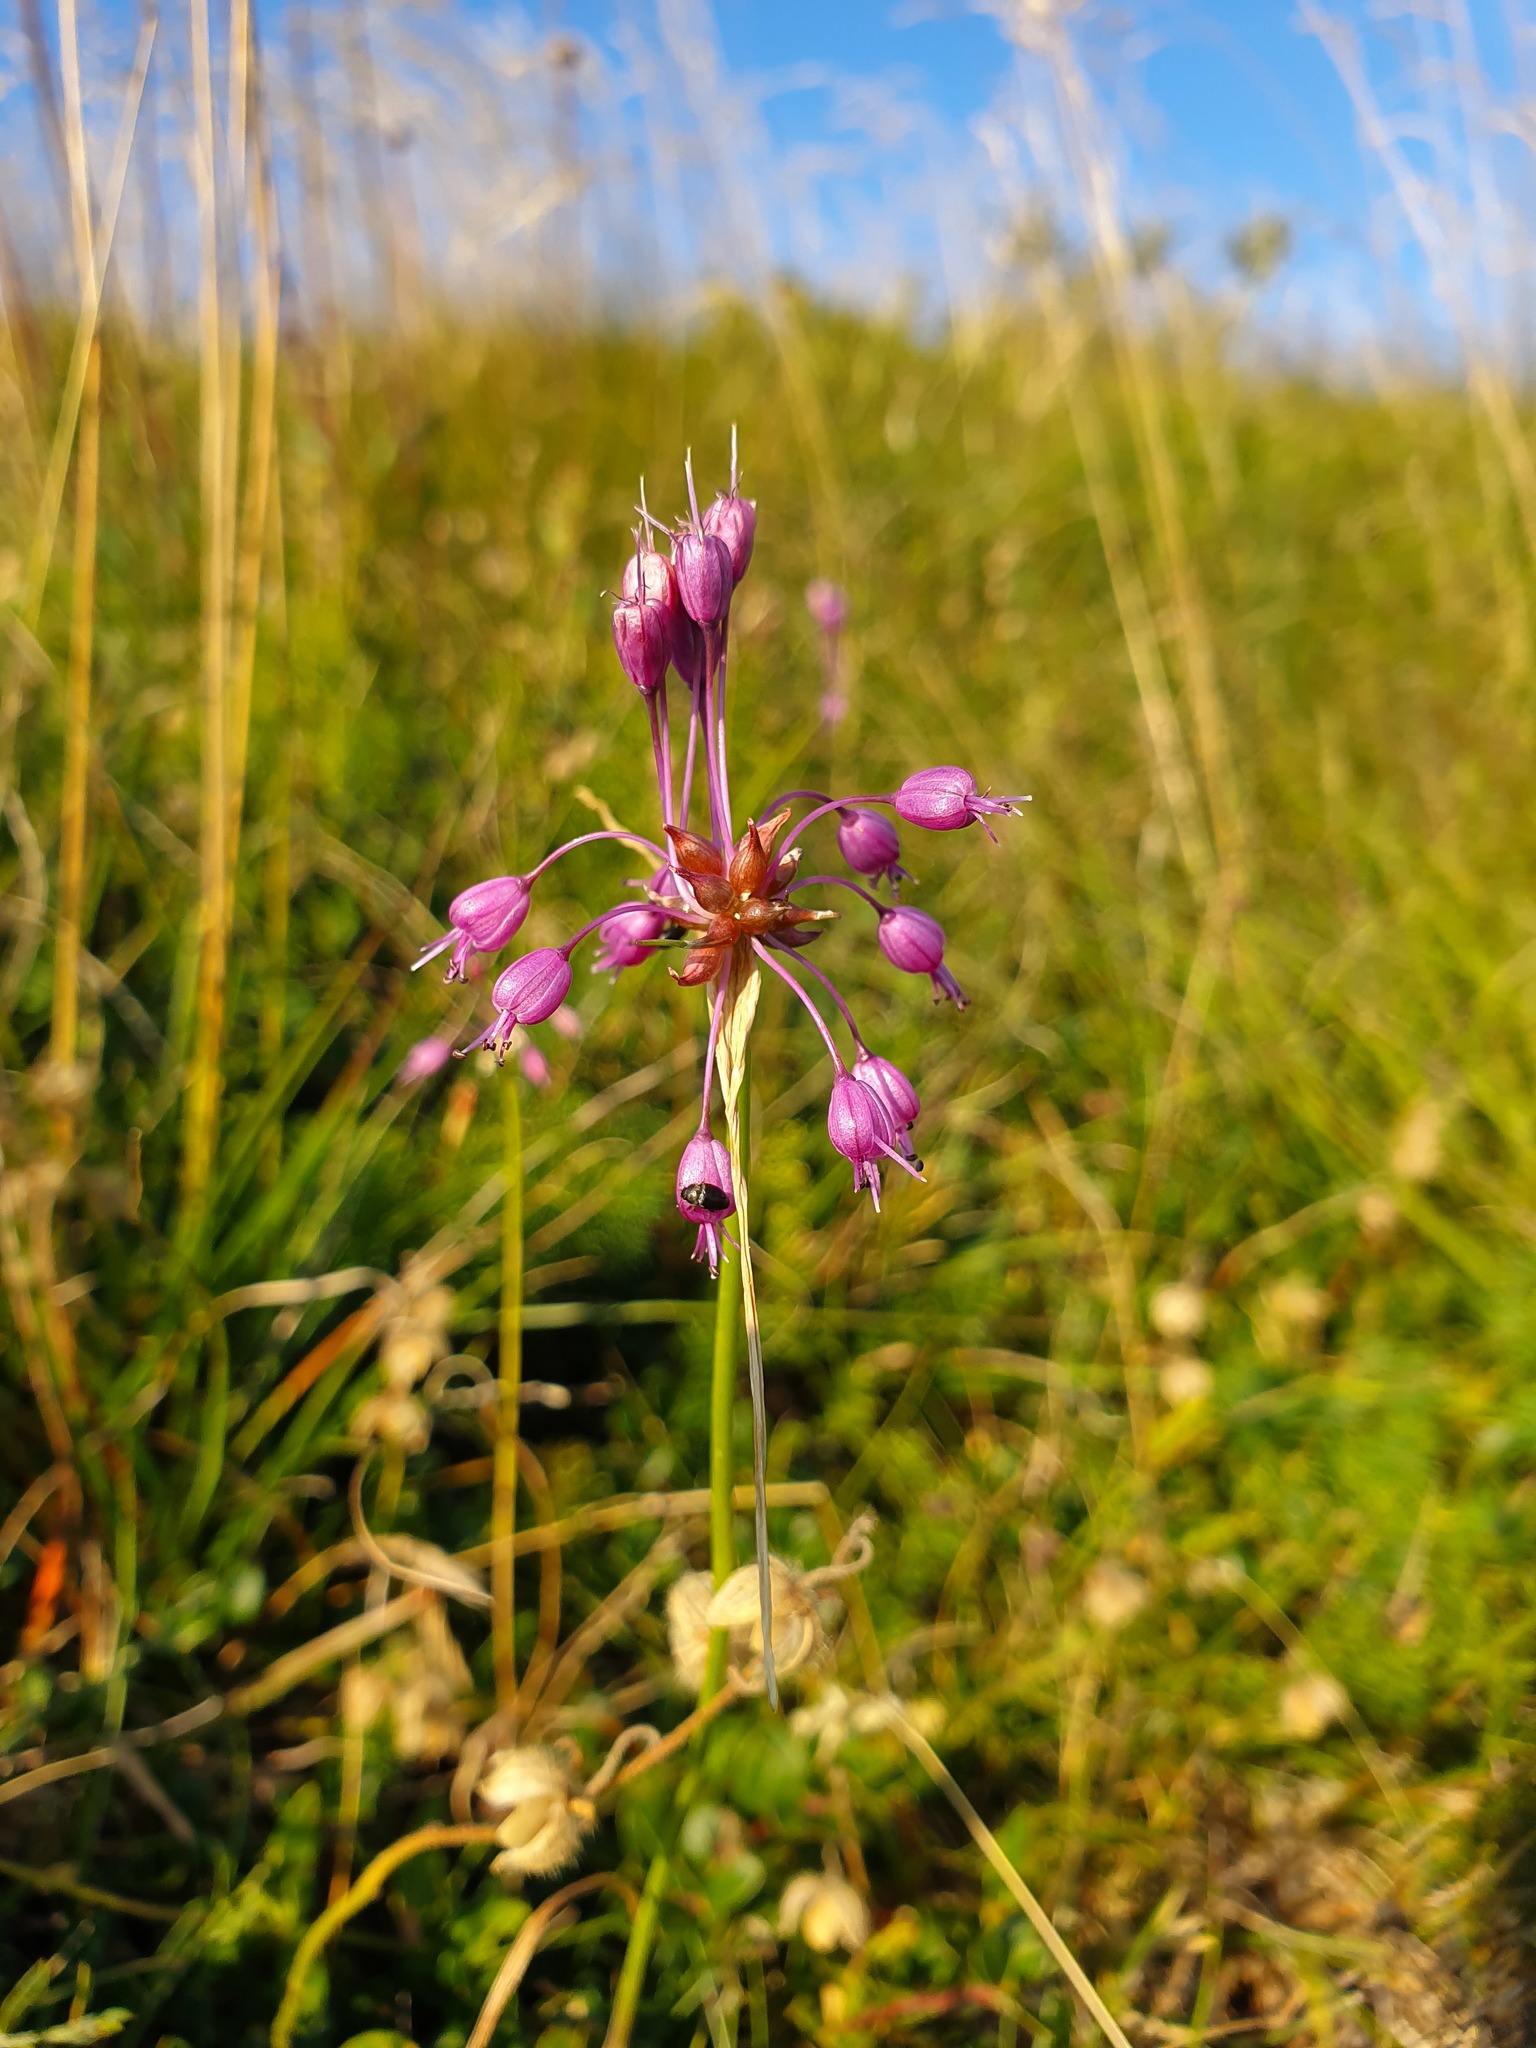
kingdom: Plantae
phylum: Tracheophyta
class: Liliopsida
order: Asparagales
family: Amaryllidaceae
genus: Allium
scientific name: Allium carinatum
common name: Keeled garlic
